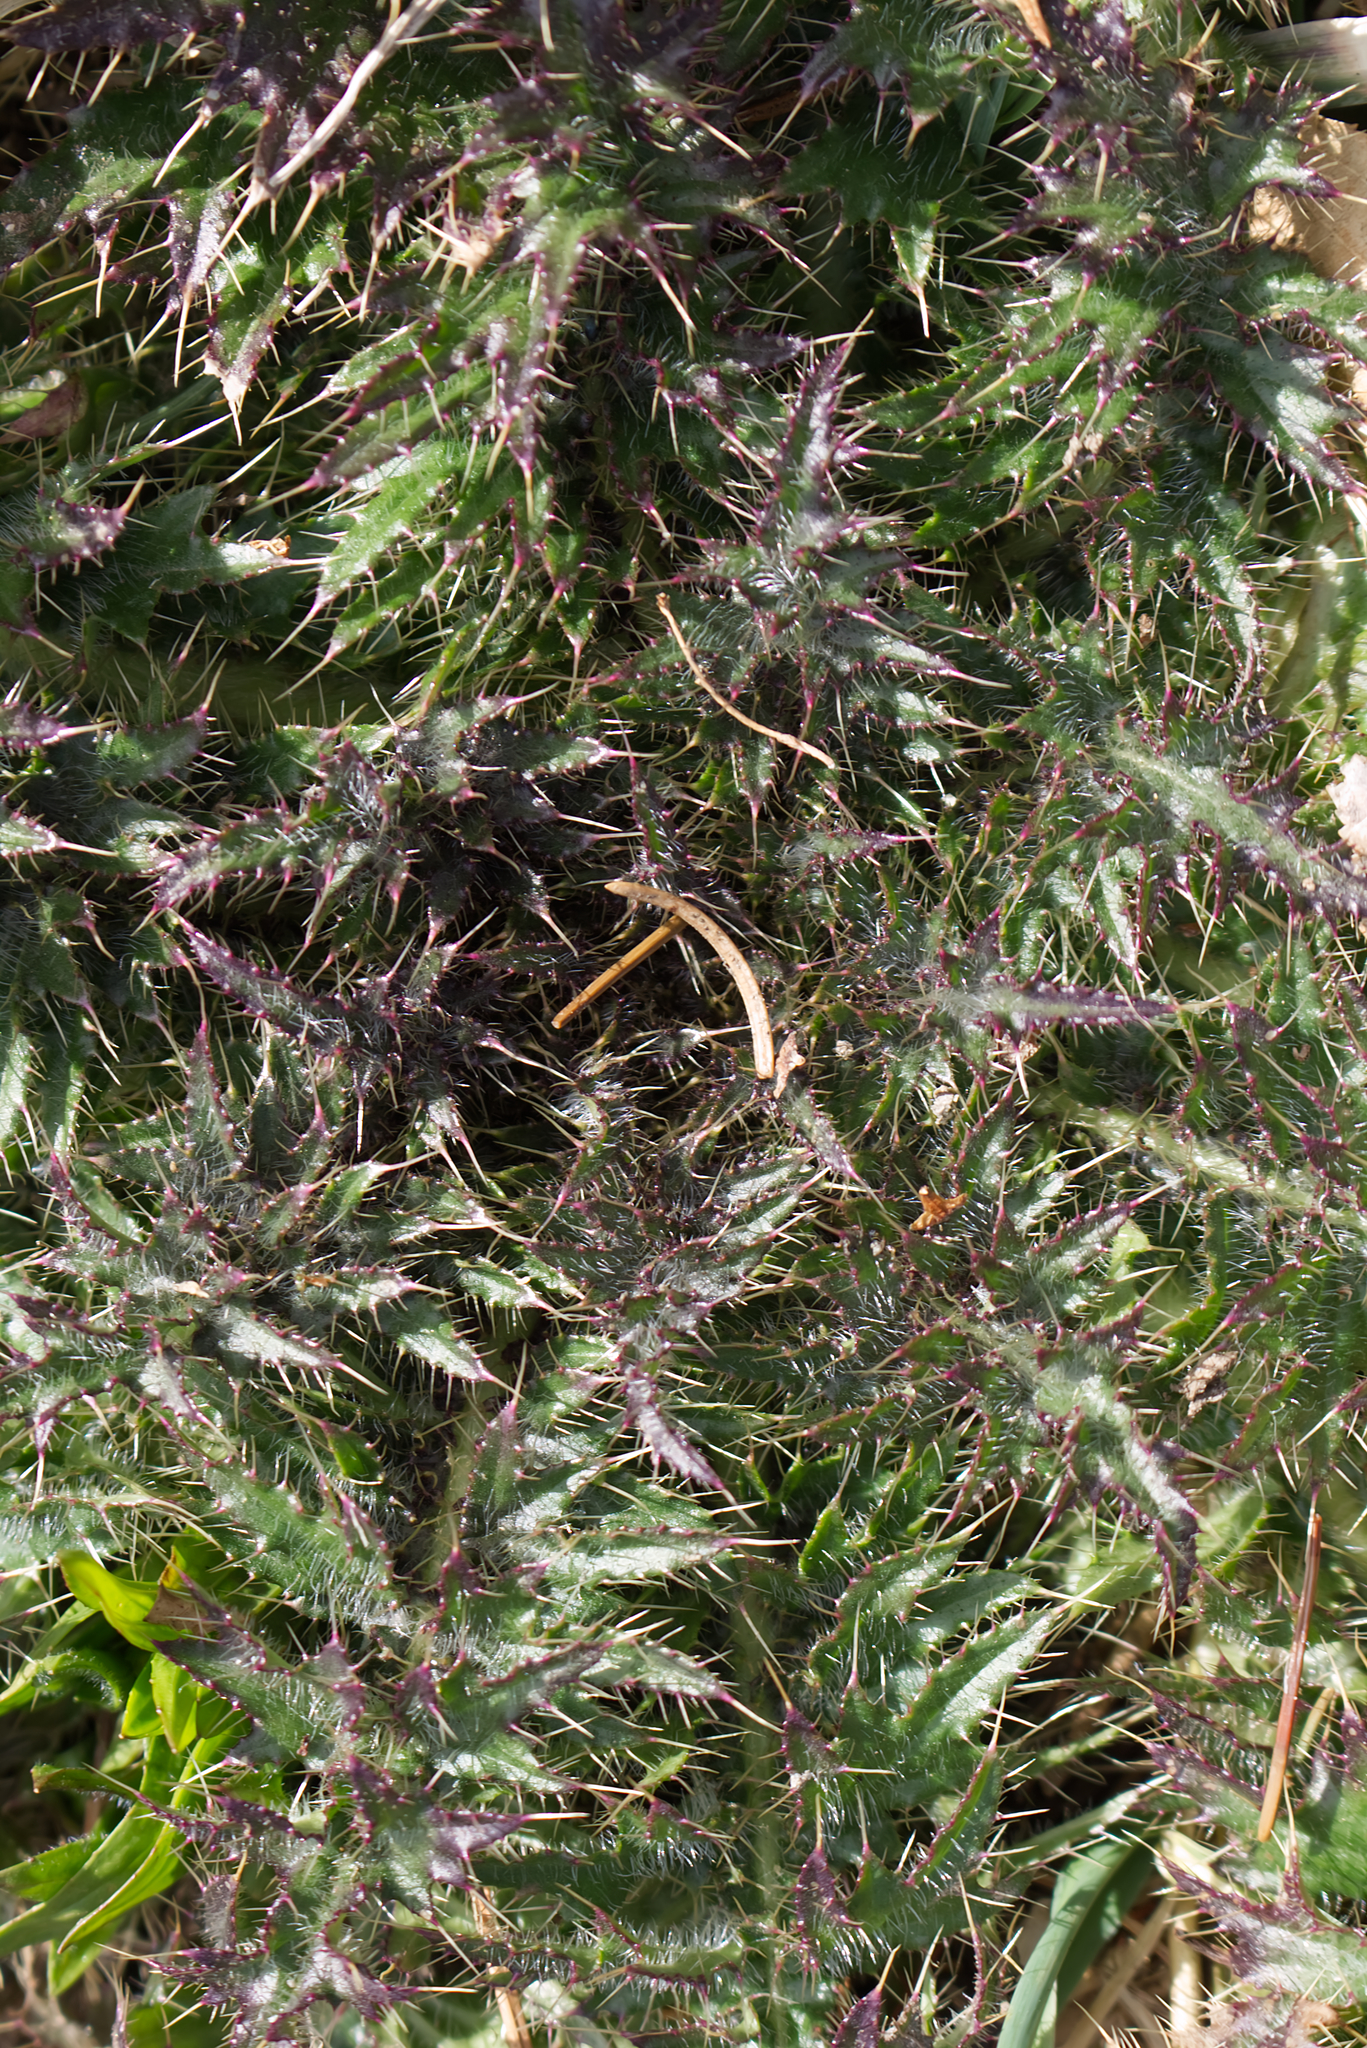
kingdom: Plantae
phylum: Tracheophyta
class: Magnoliopsida
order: Asterales
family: Asteraceae
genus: Cirsium
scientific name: Cirsium palustre
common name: Marsh thistle
